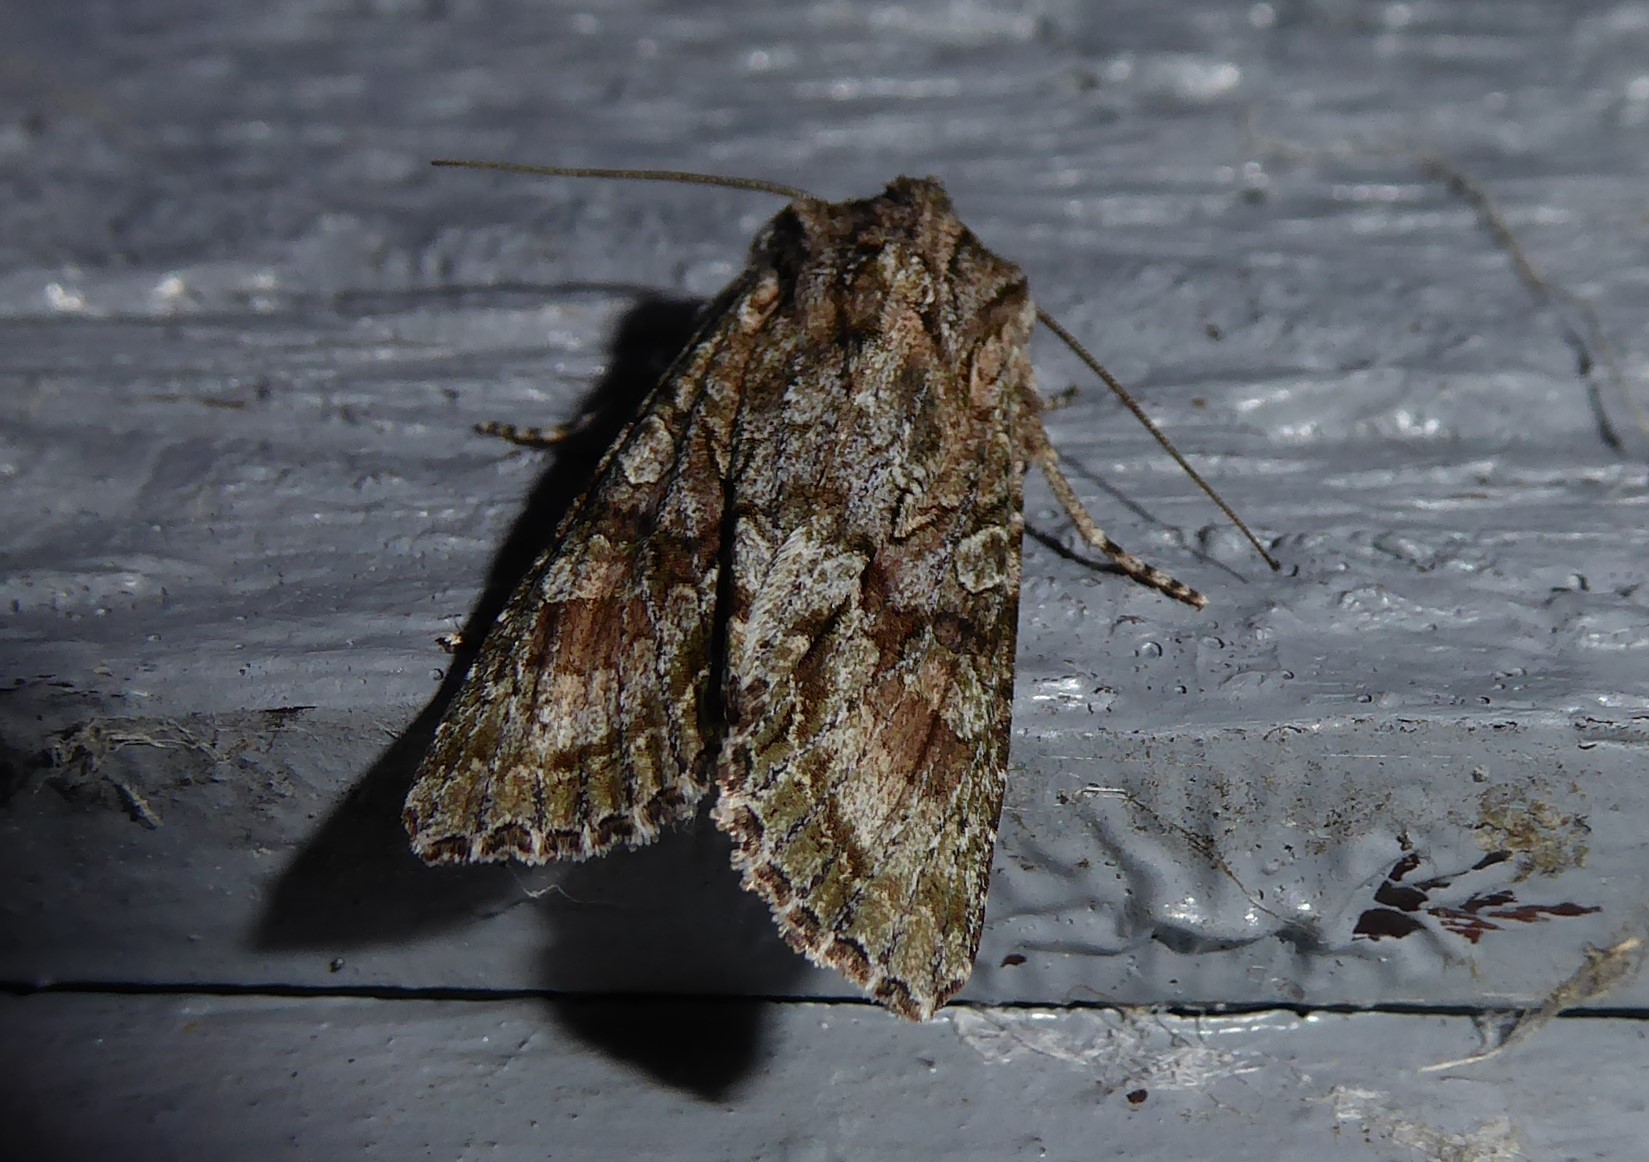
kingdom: Animalia
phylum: Arthropoda
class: Insecta
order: Lepidoptera
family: Noctuidae
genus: Ichneutica
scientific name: Ichneutica mutans
